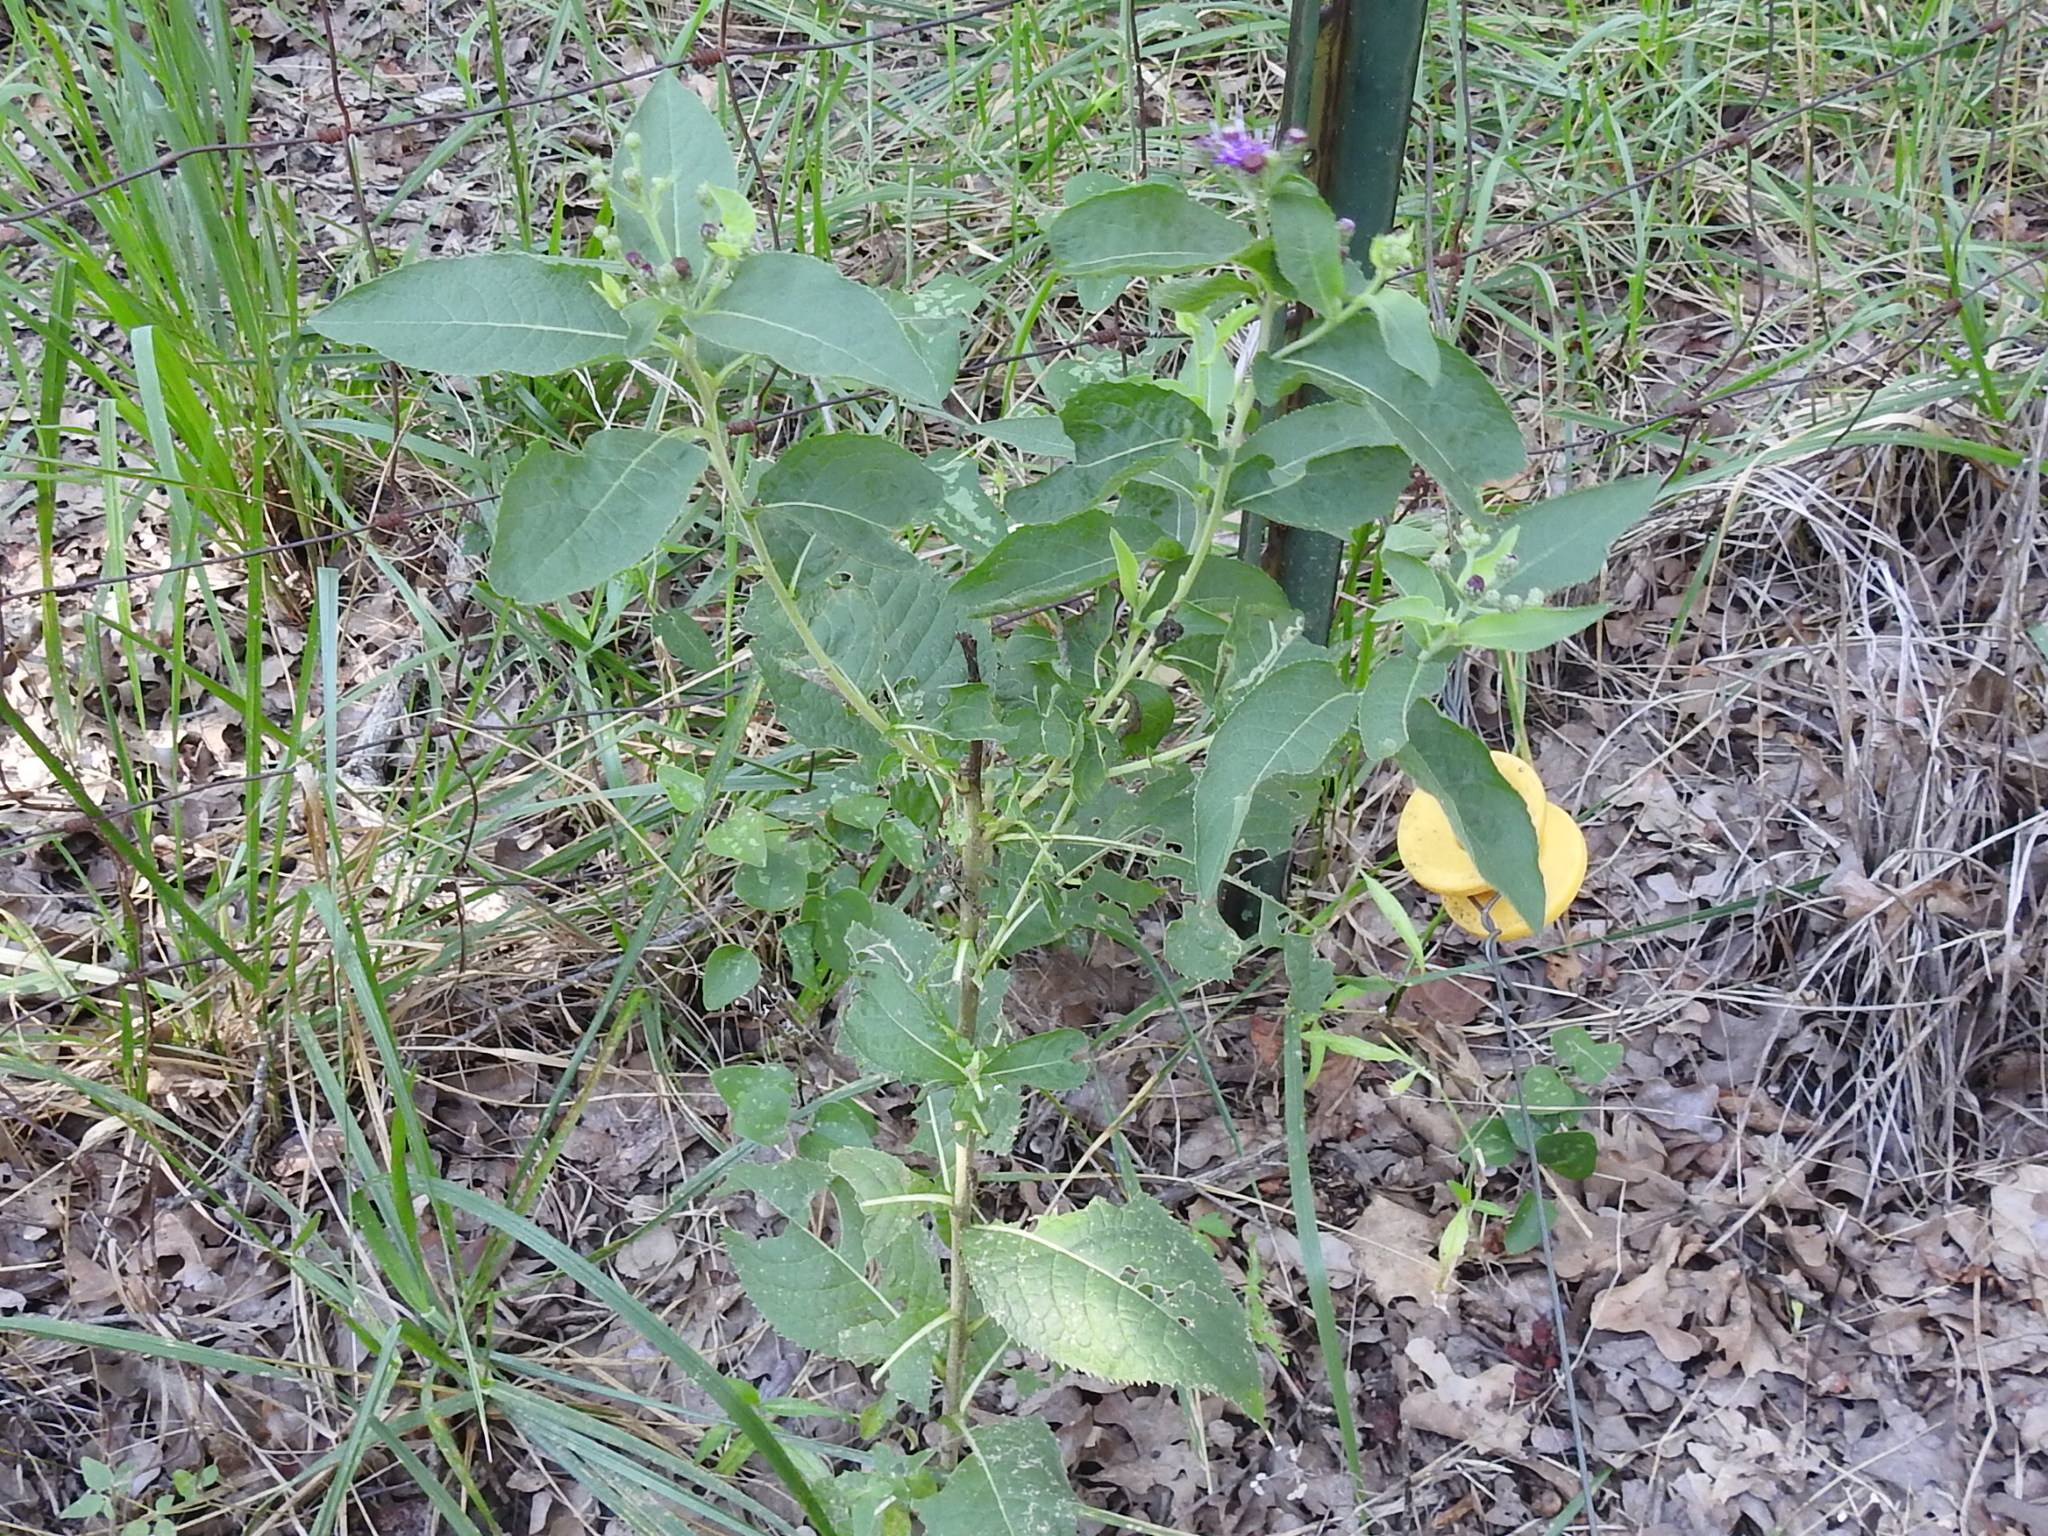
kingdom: Plantae
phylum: Tracheophyta
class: Magnoliopsida
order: Asterales
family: Asteraceae
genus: Vernonia
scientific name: Vernonia baldwinii
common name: Western ironweed
